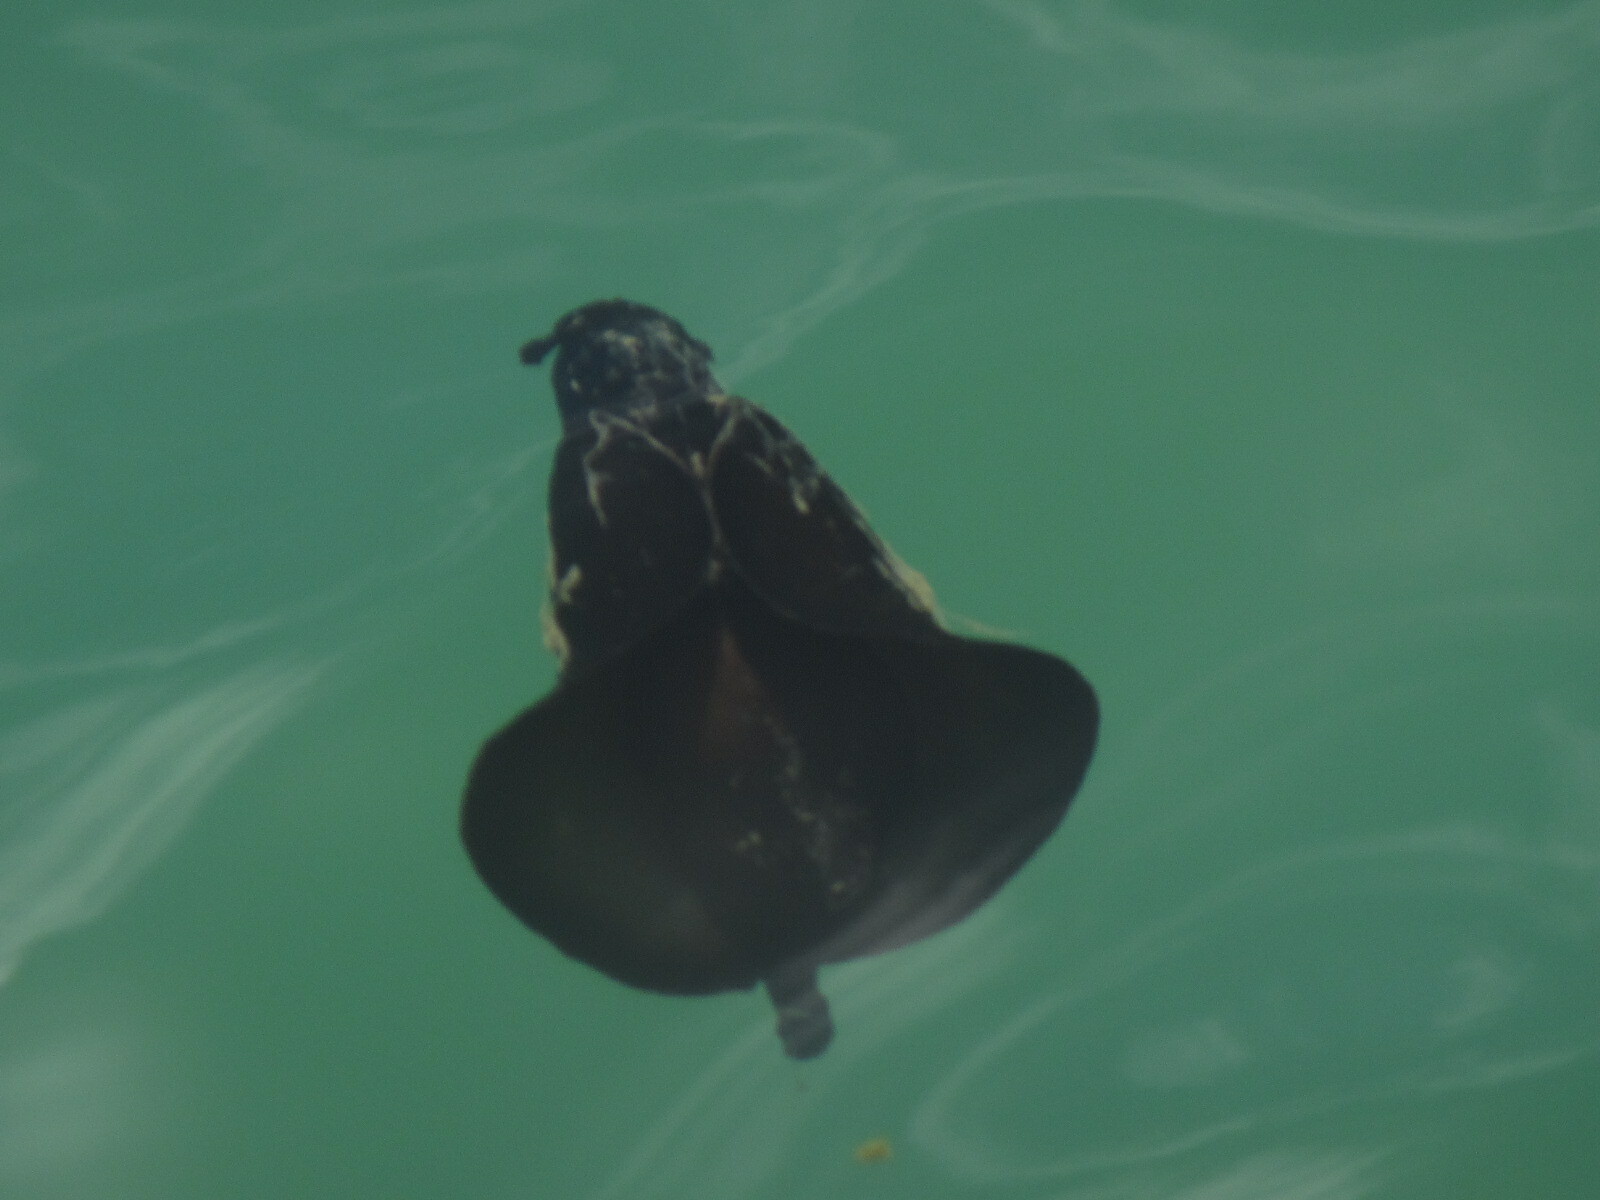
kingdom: Animalia
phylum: Mollusca
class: Gastropoda
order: Aplysiida
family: Aplysiidae
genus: Aplysia
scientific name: Aplysia fasciata
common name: Banded sea hare
